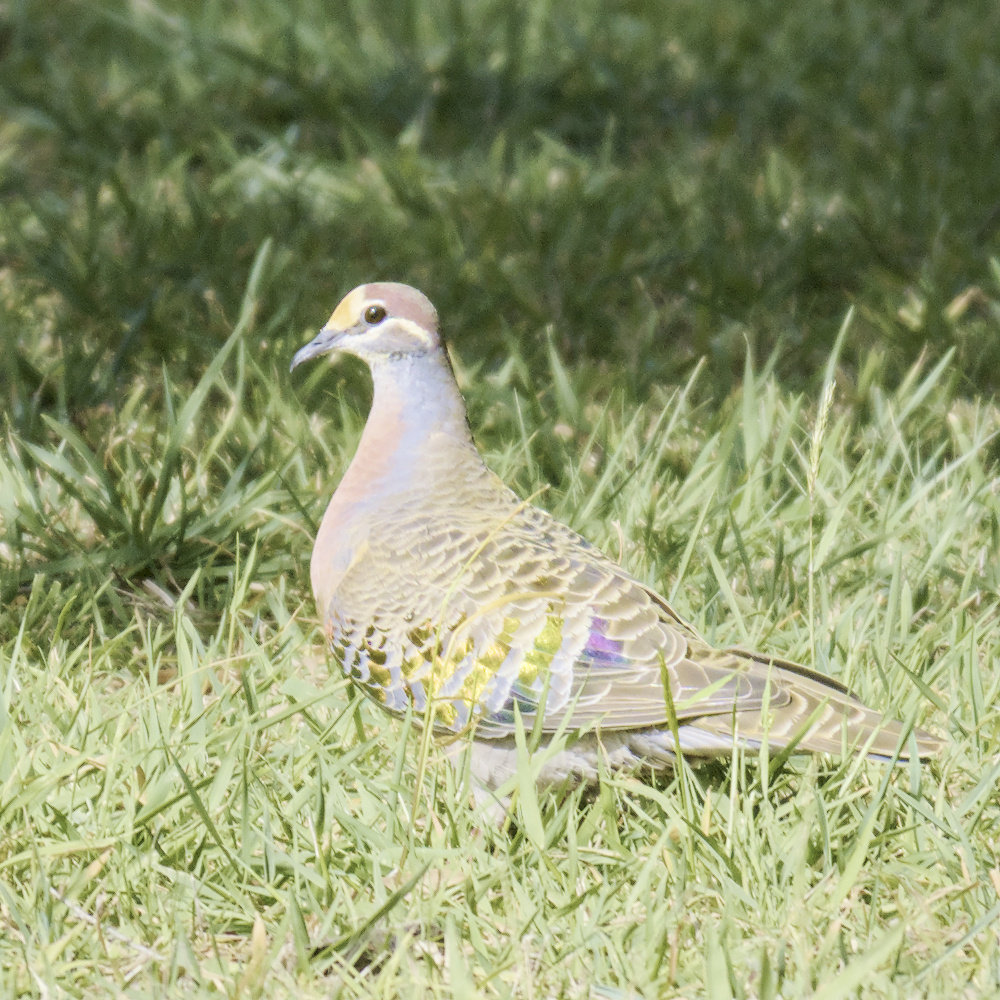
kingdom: Animalia
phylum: Chordata
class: Aves
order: Columbiformes
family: Columbidae
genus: Phaps
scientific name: Phaps chalcoptera
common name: Common bronzewing
